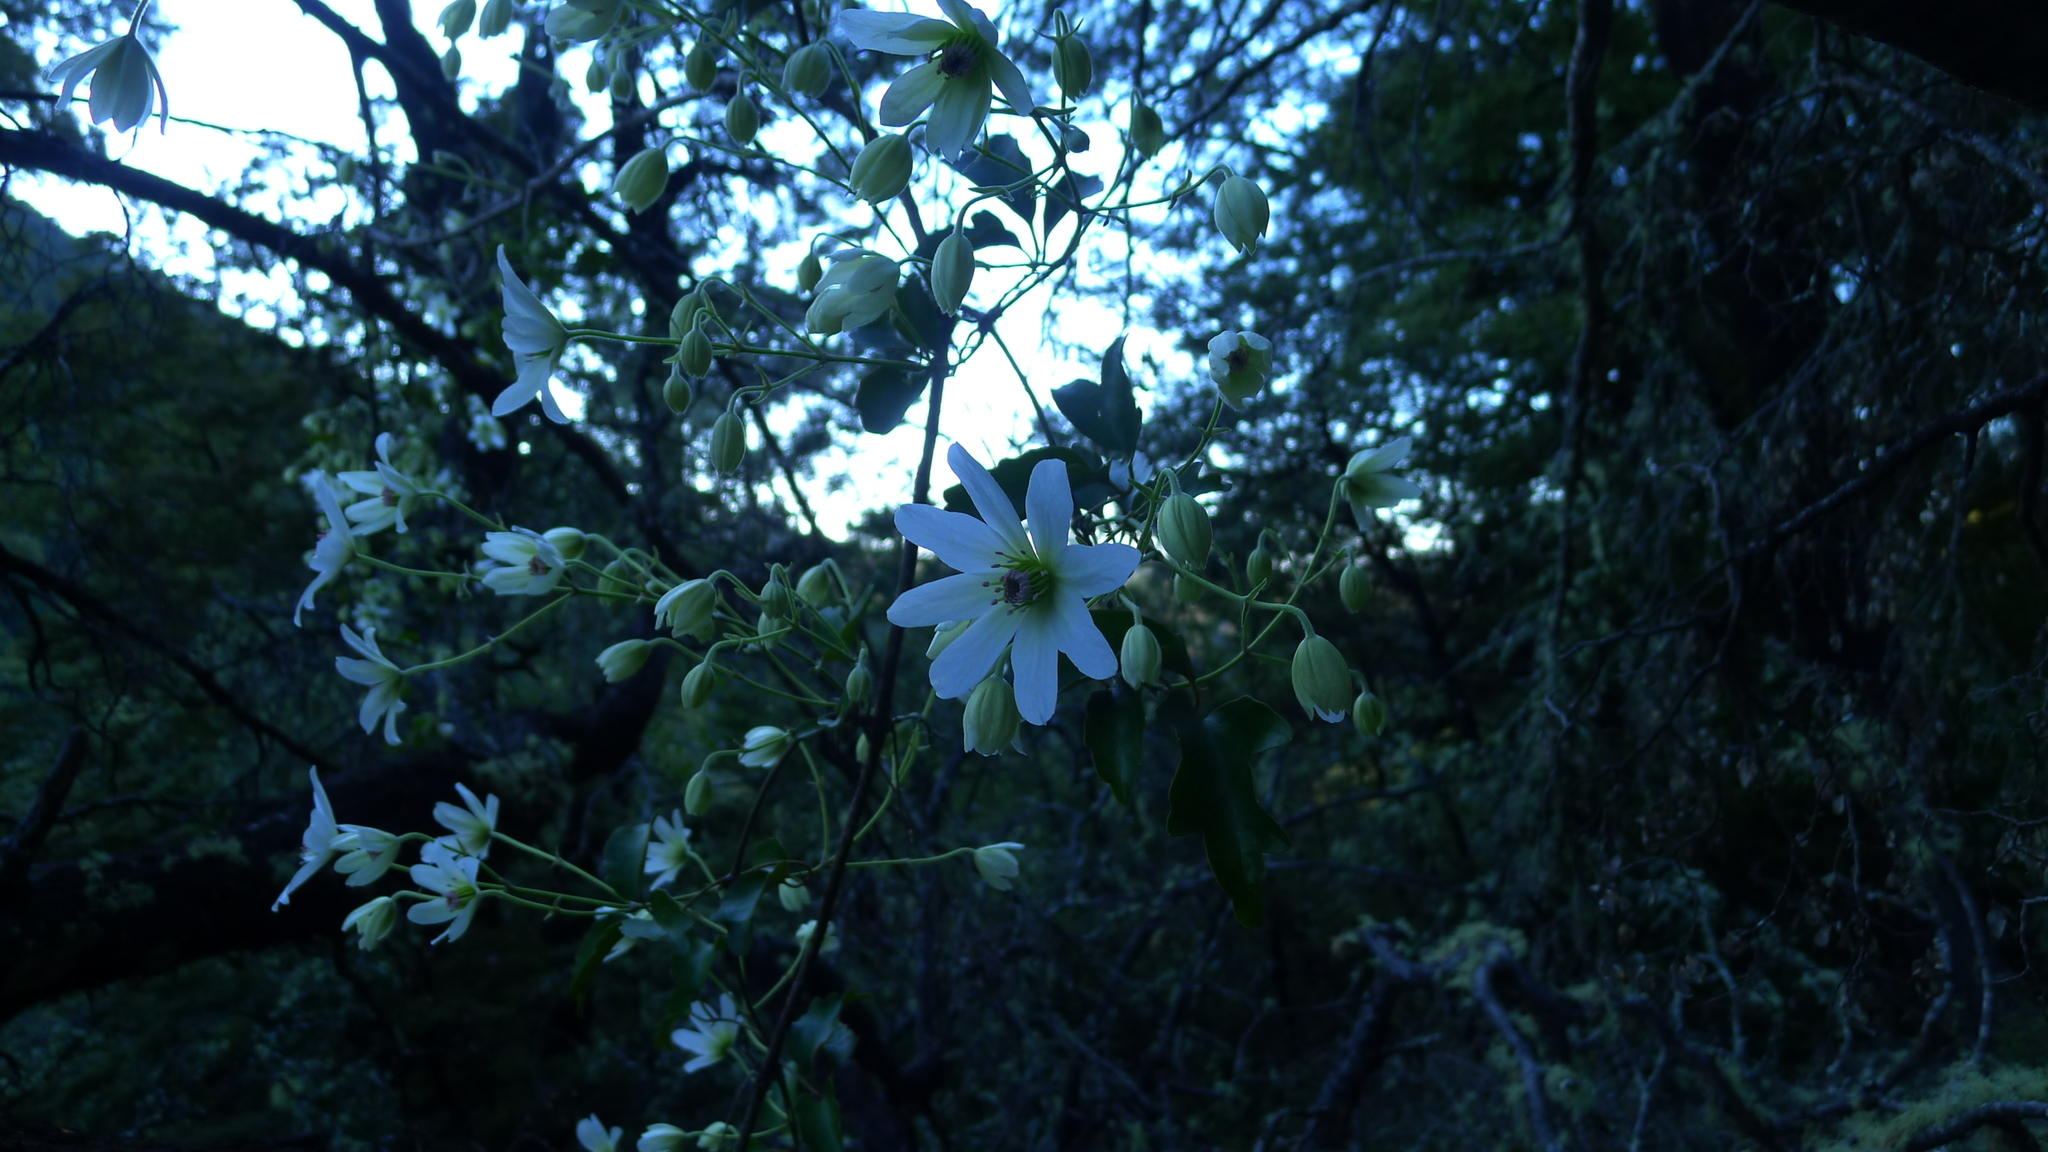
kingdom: Plantae
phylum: Tracheophyta
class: Magnoliopsida
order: Ranunculales
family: Ranunculaceae
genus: Clematis
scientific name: Clematis paniculata
